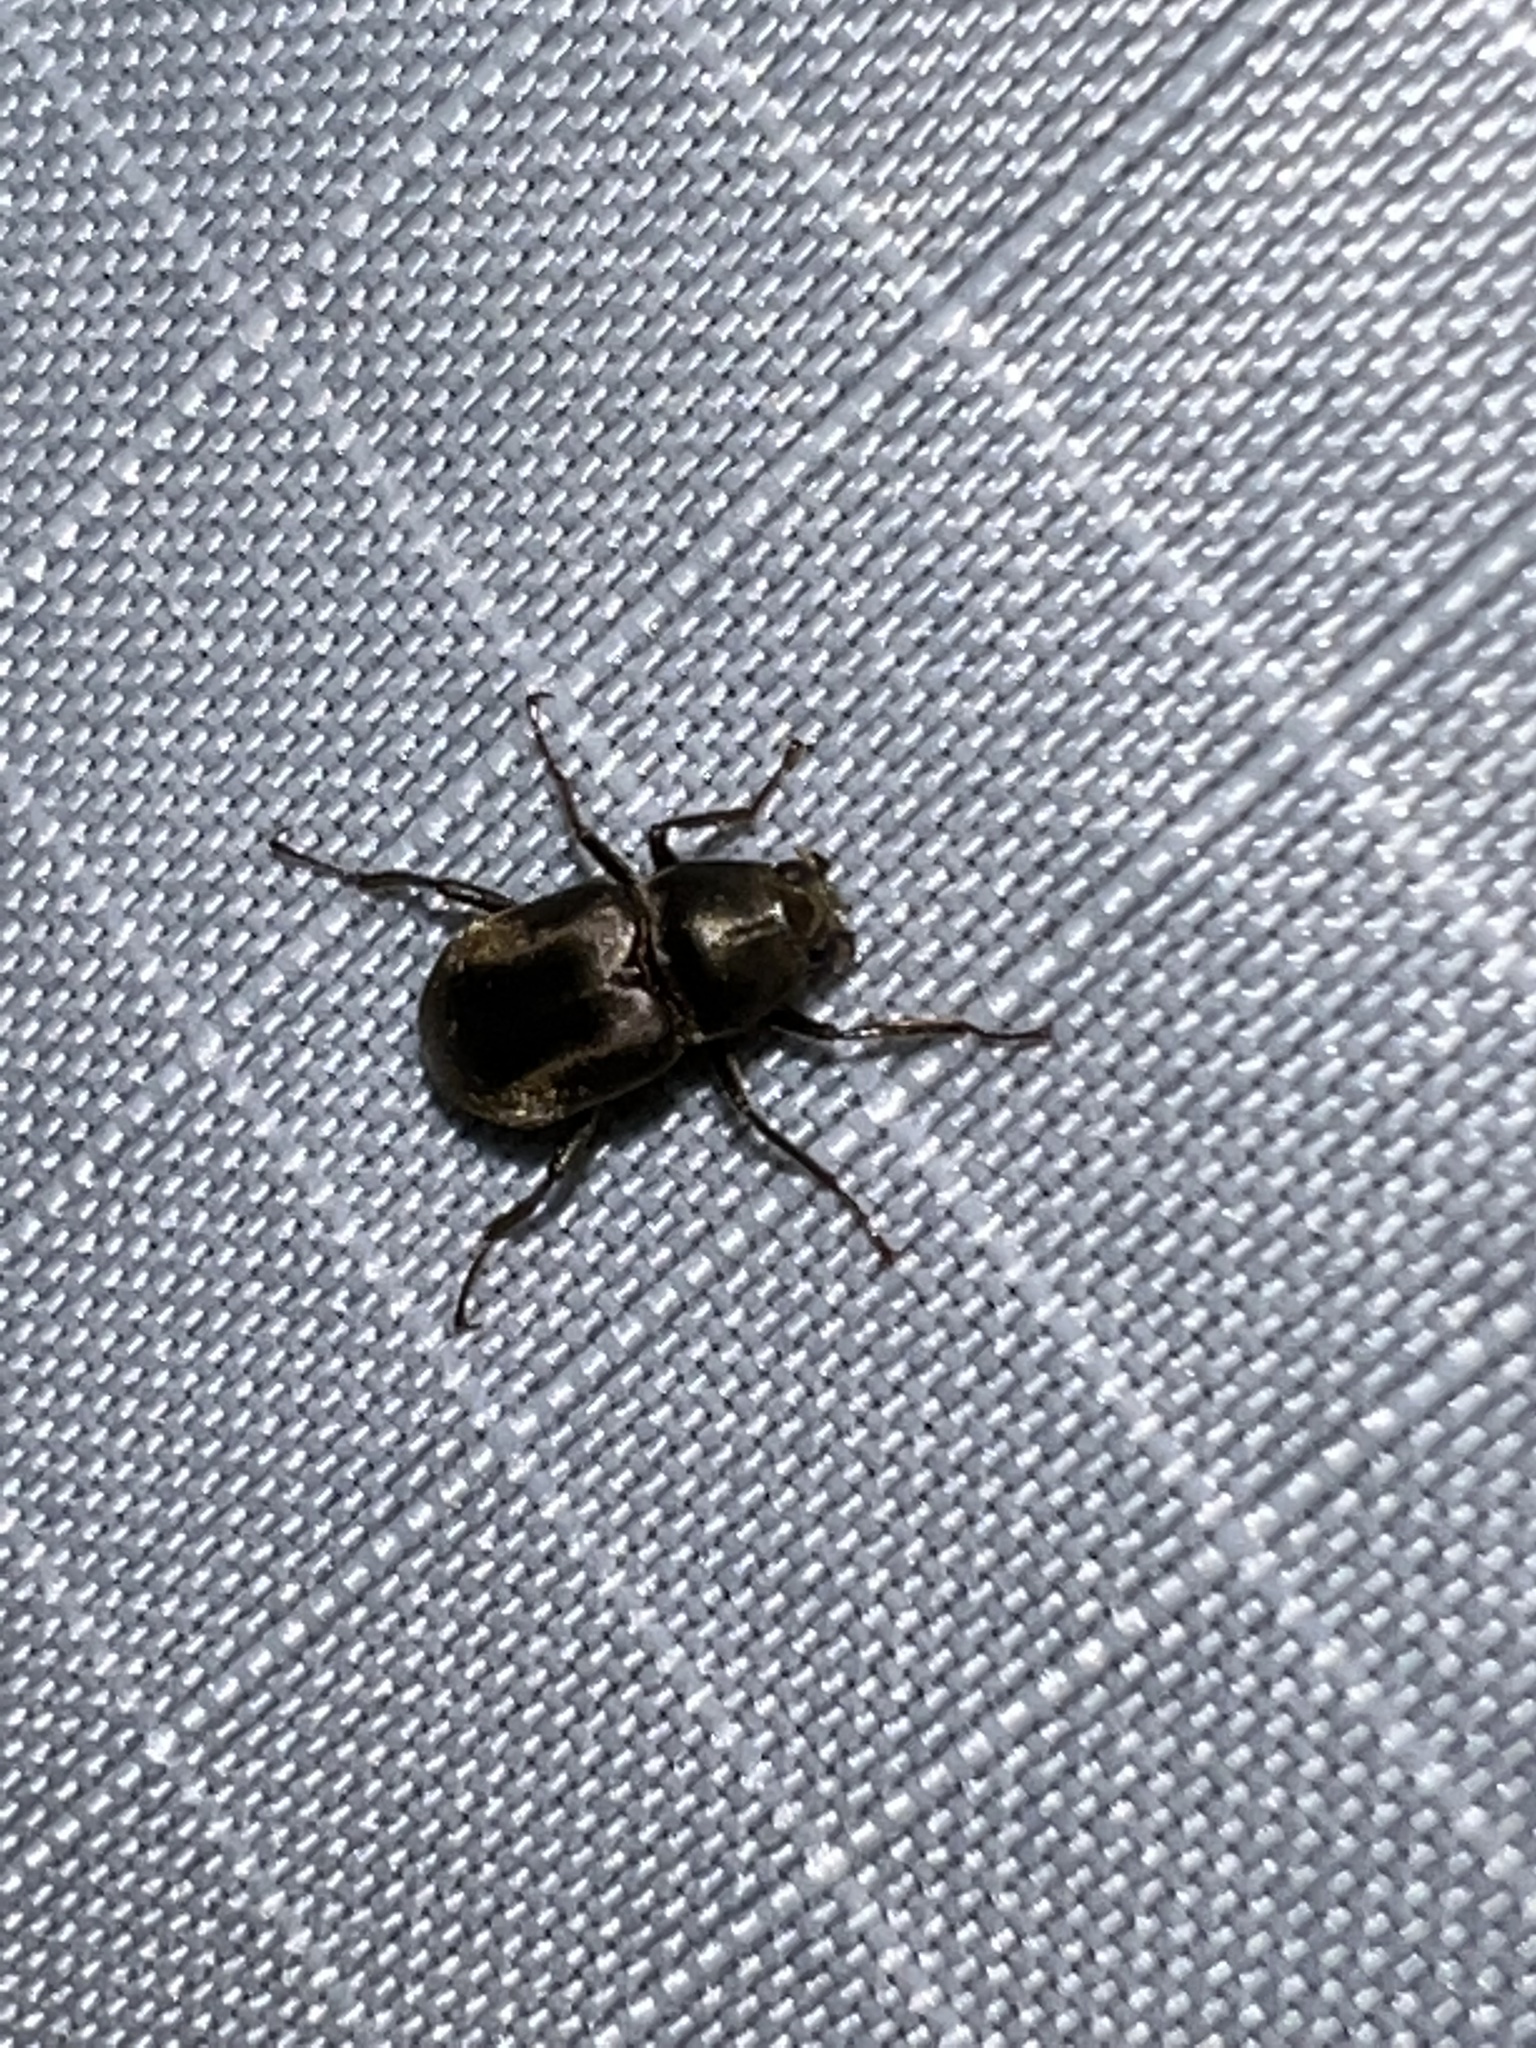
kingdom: Animalia
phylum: Arthropoda
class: Insecta
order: Coleoptera
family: Dryopidae
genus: Helichus
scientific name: Helichus lithophilus
